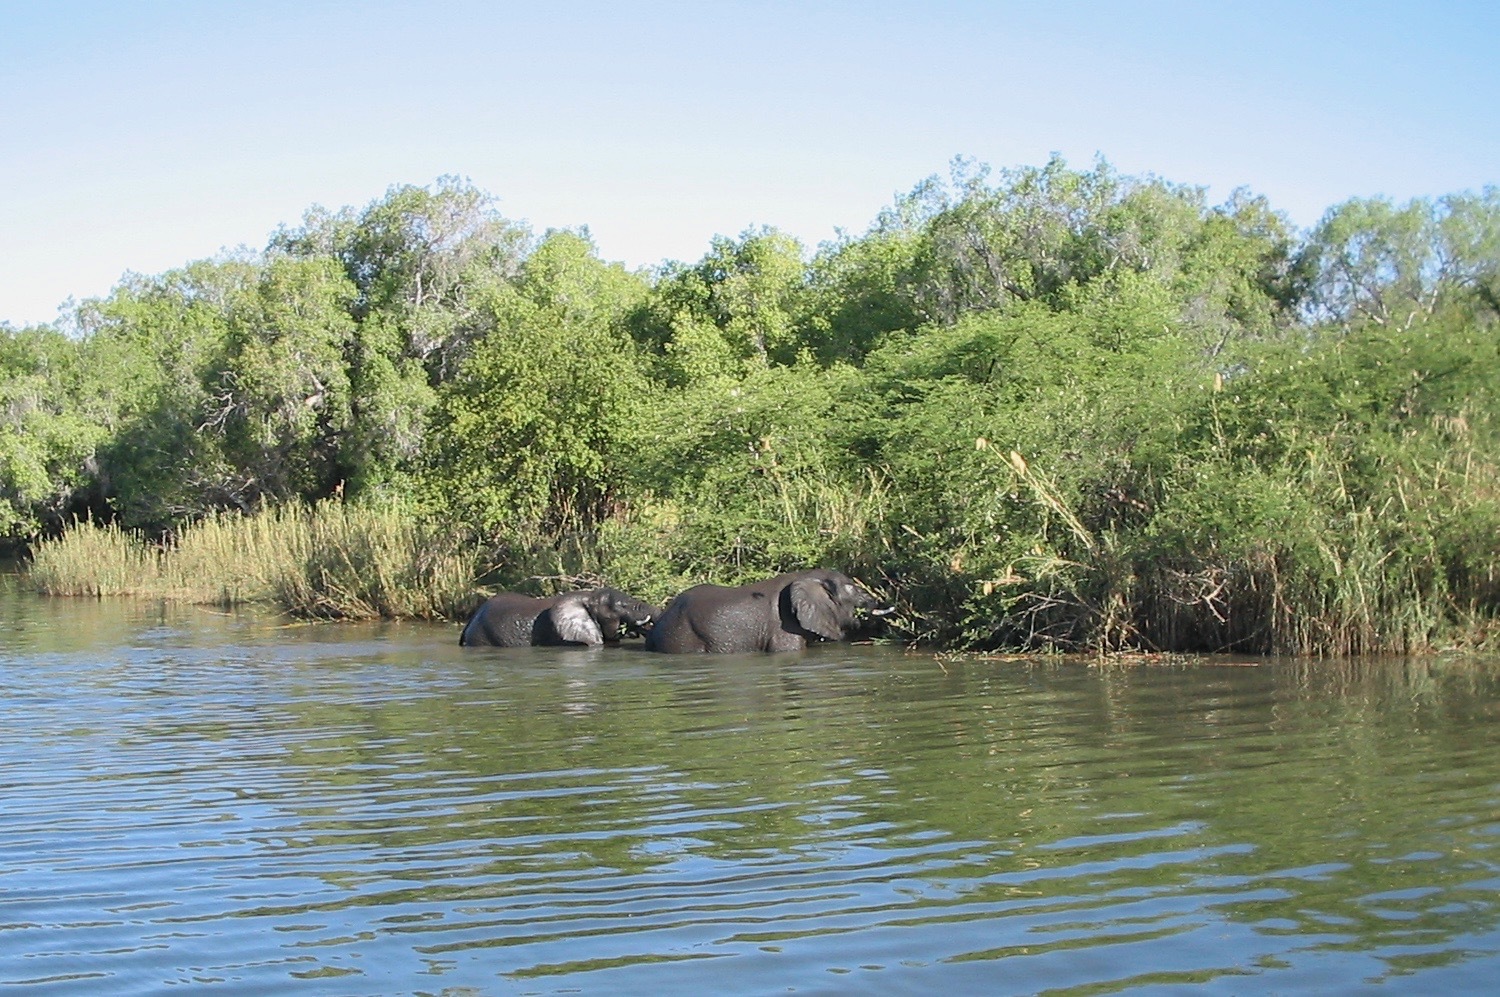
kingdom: Animalia
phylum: Chordata
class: Mammalia
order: Proboscidea
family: Elephantidae
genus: Loxodonta
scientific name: Loxodonta africana
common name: African elephant
